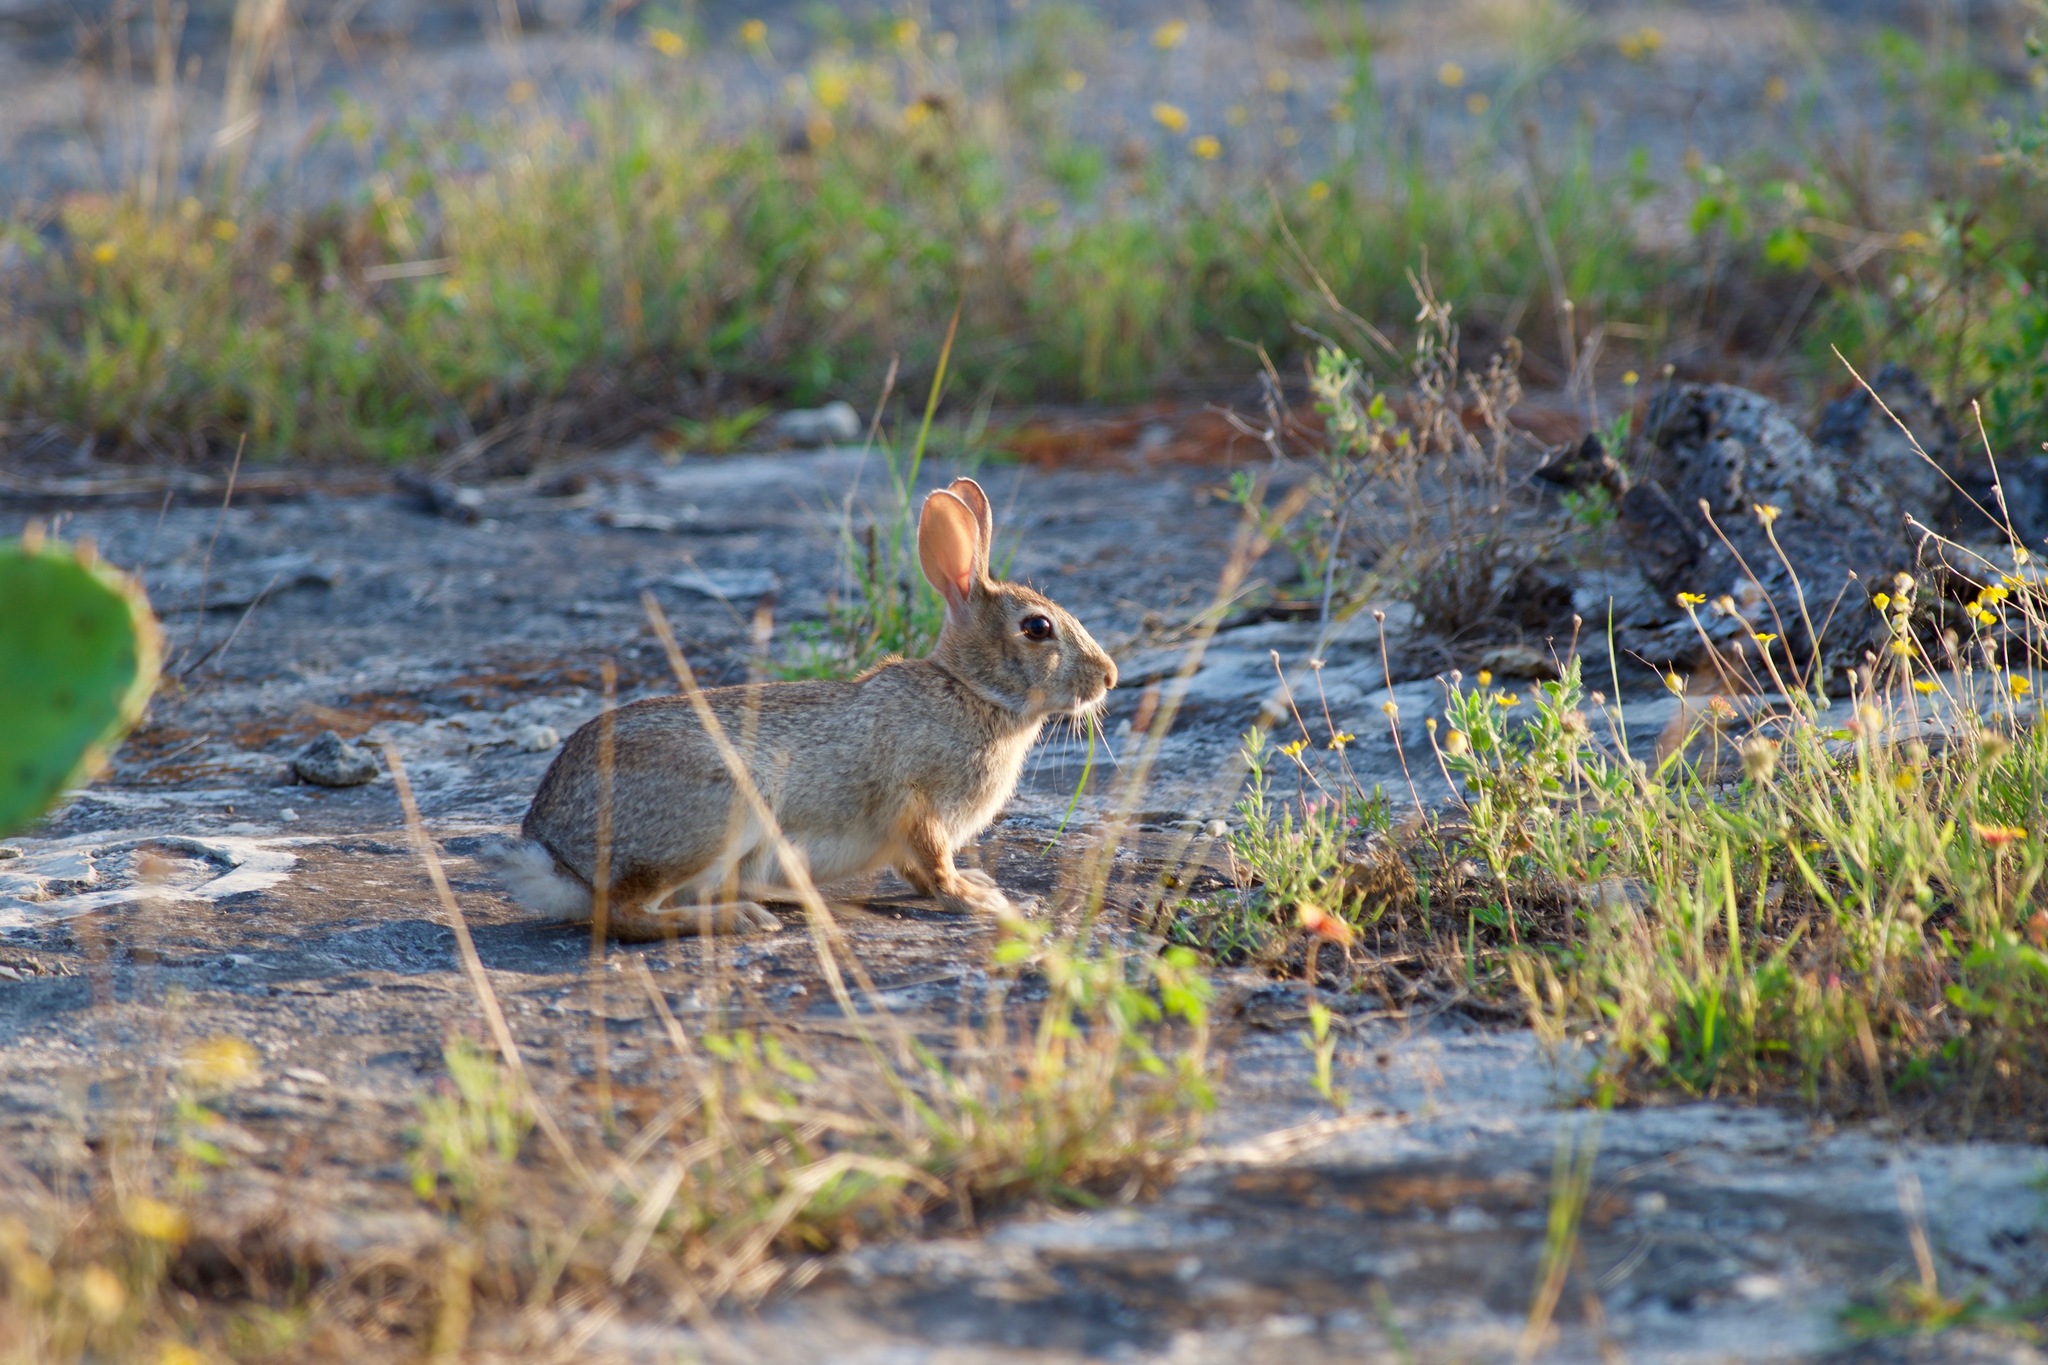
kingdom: Animalia
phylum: Chordata
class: Mammalia
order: Lagomorpha
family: Leporidae
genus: Sylvilagus
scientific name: Sylvilagus floridanus
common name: Eastern cottontail
